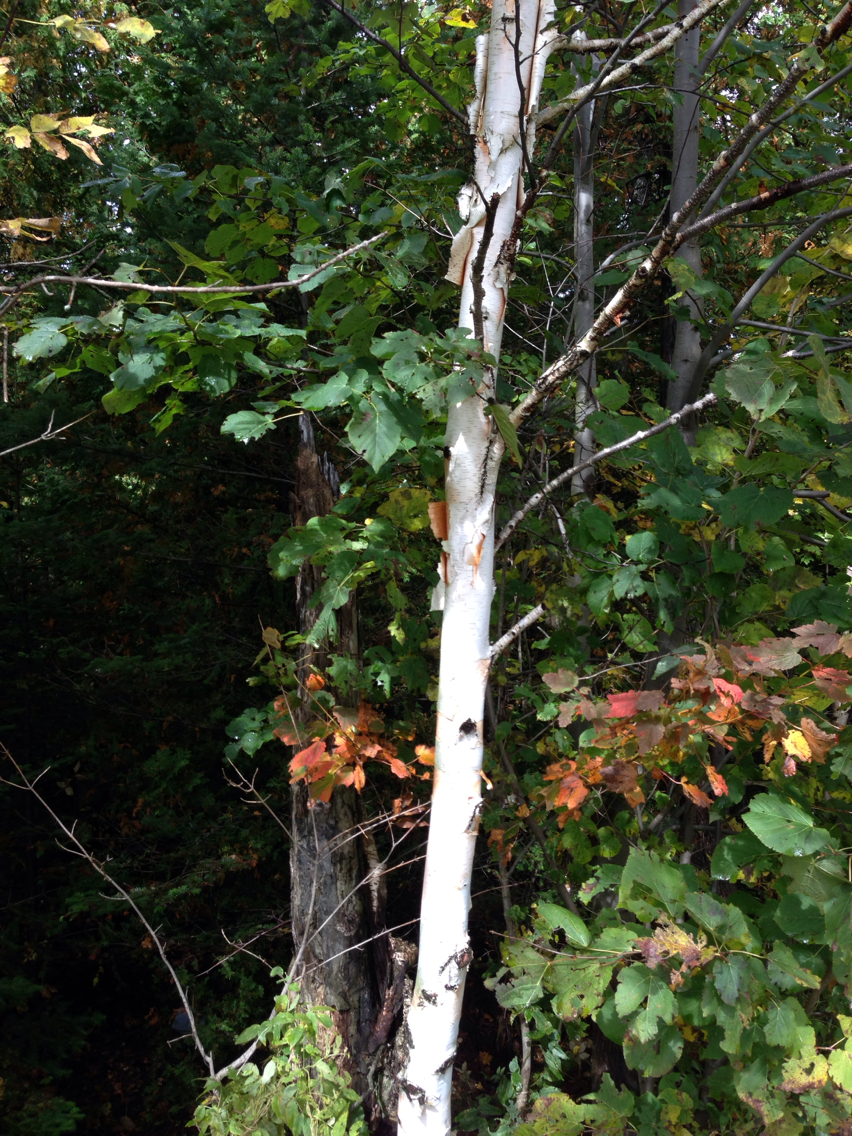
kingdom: Plantae
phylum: Tracheophyta
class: Magnoliopsida
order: Fagales
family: Betulaceae
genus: Betula
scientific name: Betula papyrifera
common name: Paper birch
